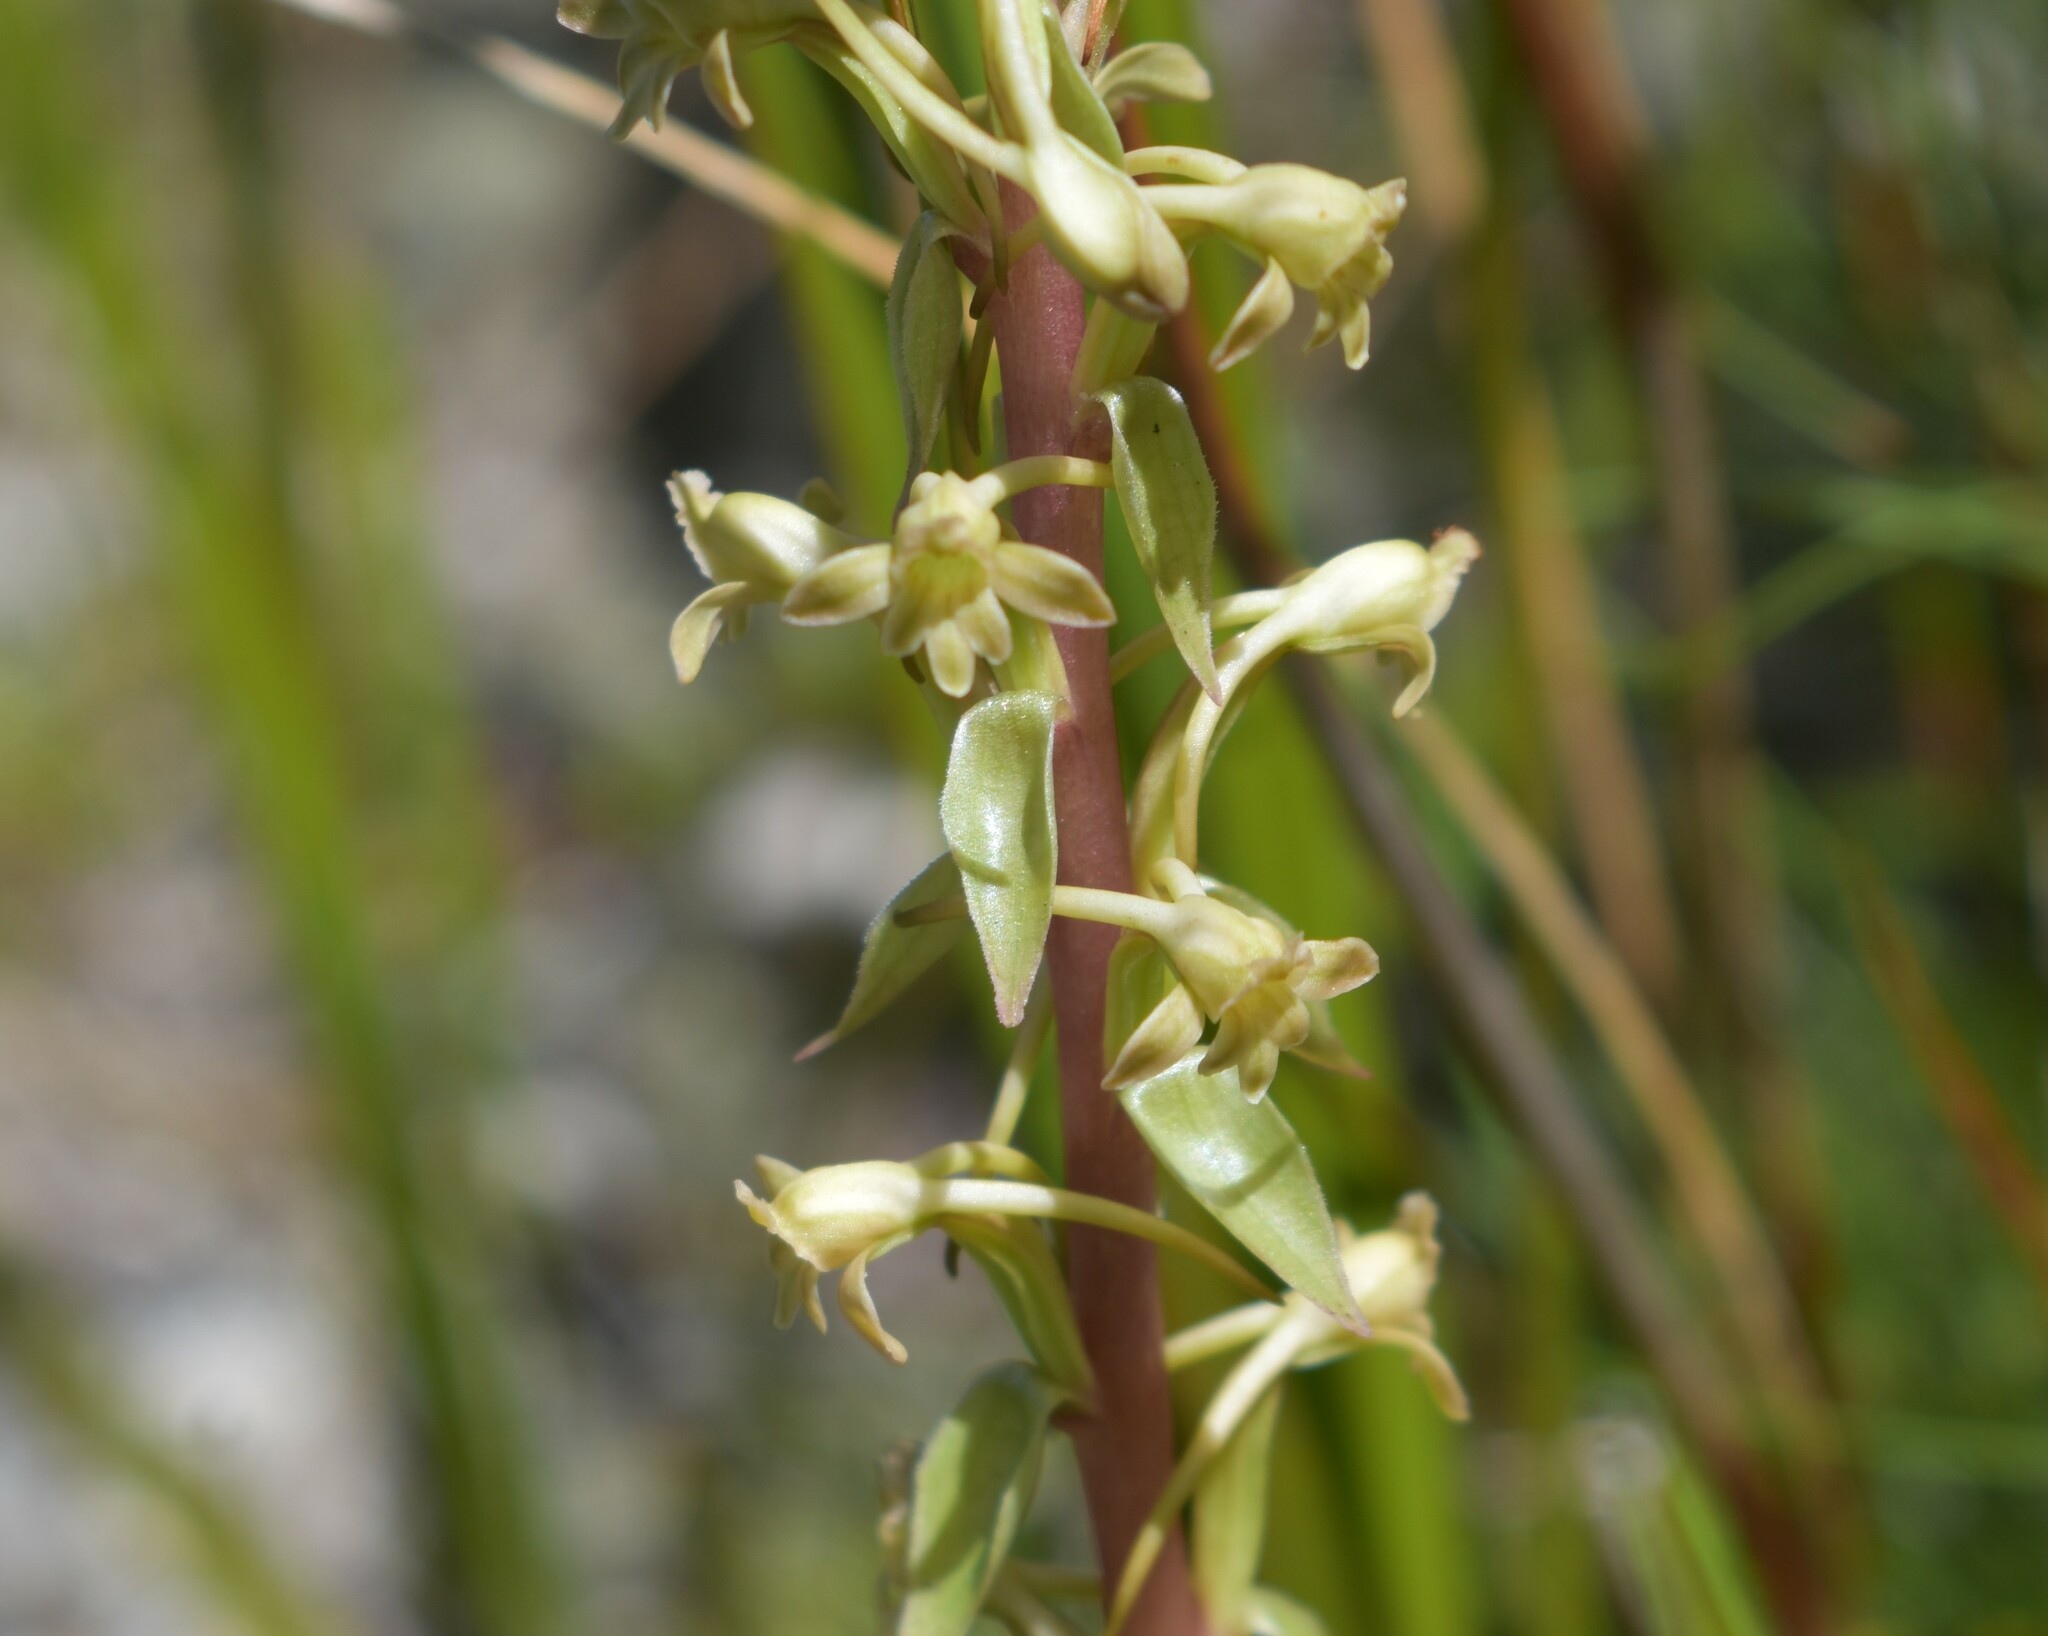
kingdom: Plantae
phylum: Tracheophyta
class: Liliopsida
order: Asparagales
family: Orchidaceae
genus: Satyrium
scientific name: Satyrium humile
